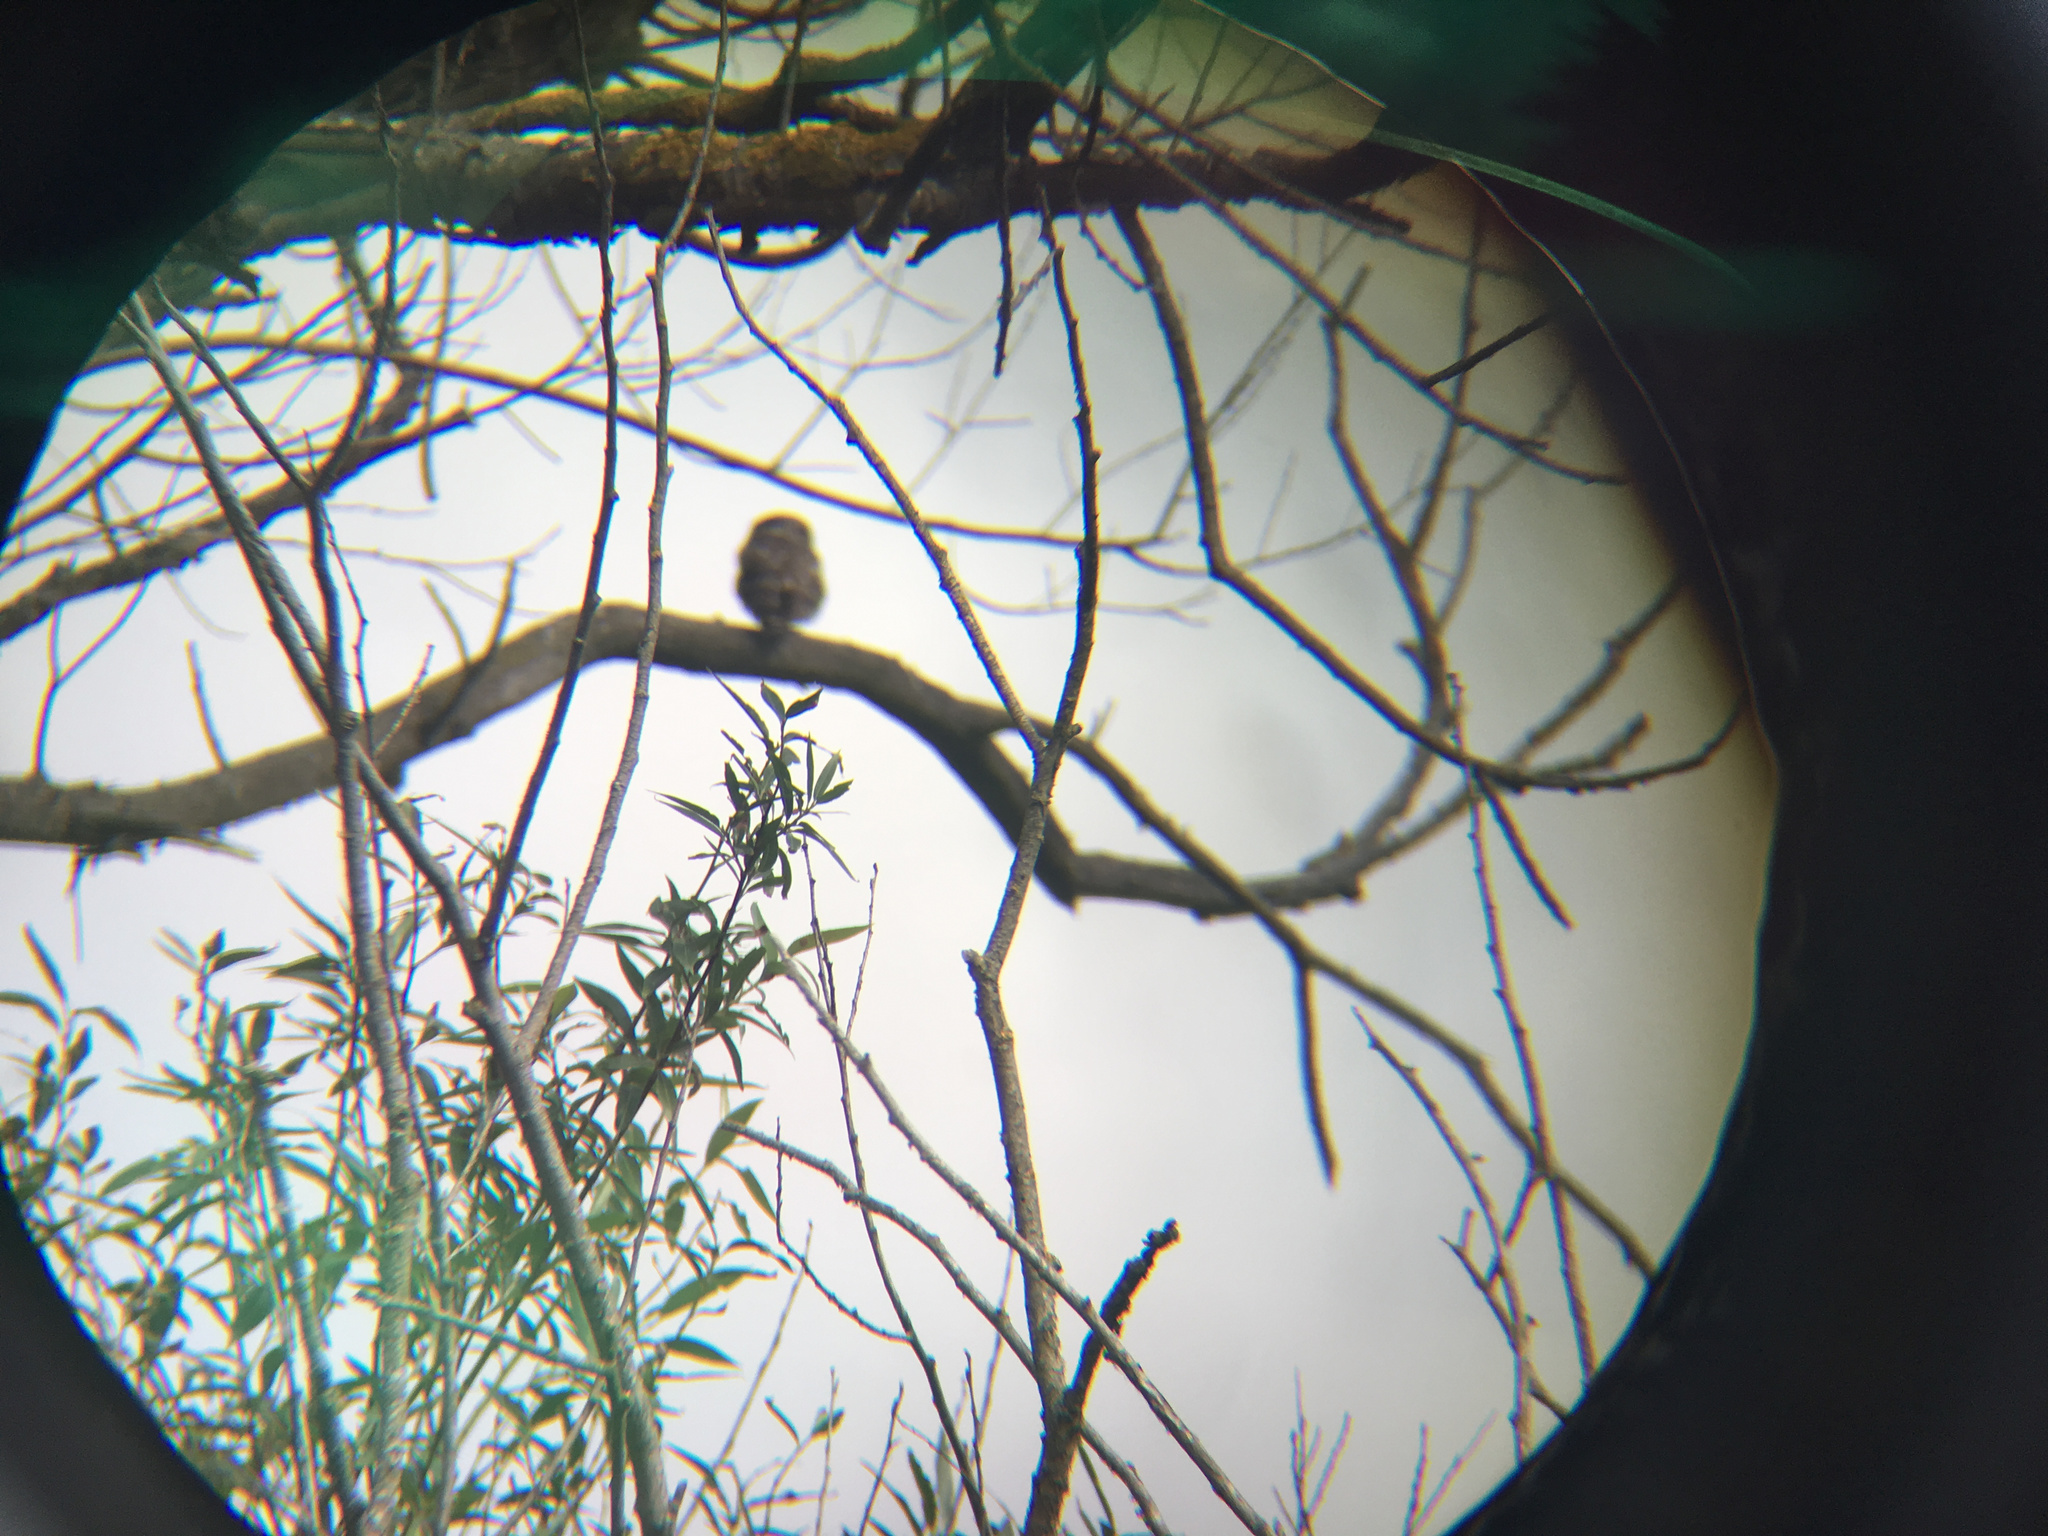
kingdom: Animalia
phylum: Chordata
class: Aves
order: Strigiformes
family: Strigidae
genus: Athene
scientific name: Athene noctua
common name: Little owl
